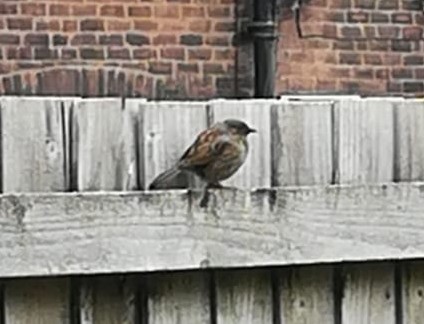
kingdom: Animalia
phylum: Chordata
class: Aves
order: Passeriformes
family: Prunellidae
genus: Prunella
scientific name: Prunella modularis
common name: Dunnock
